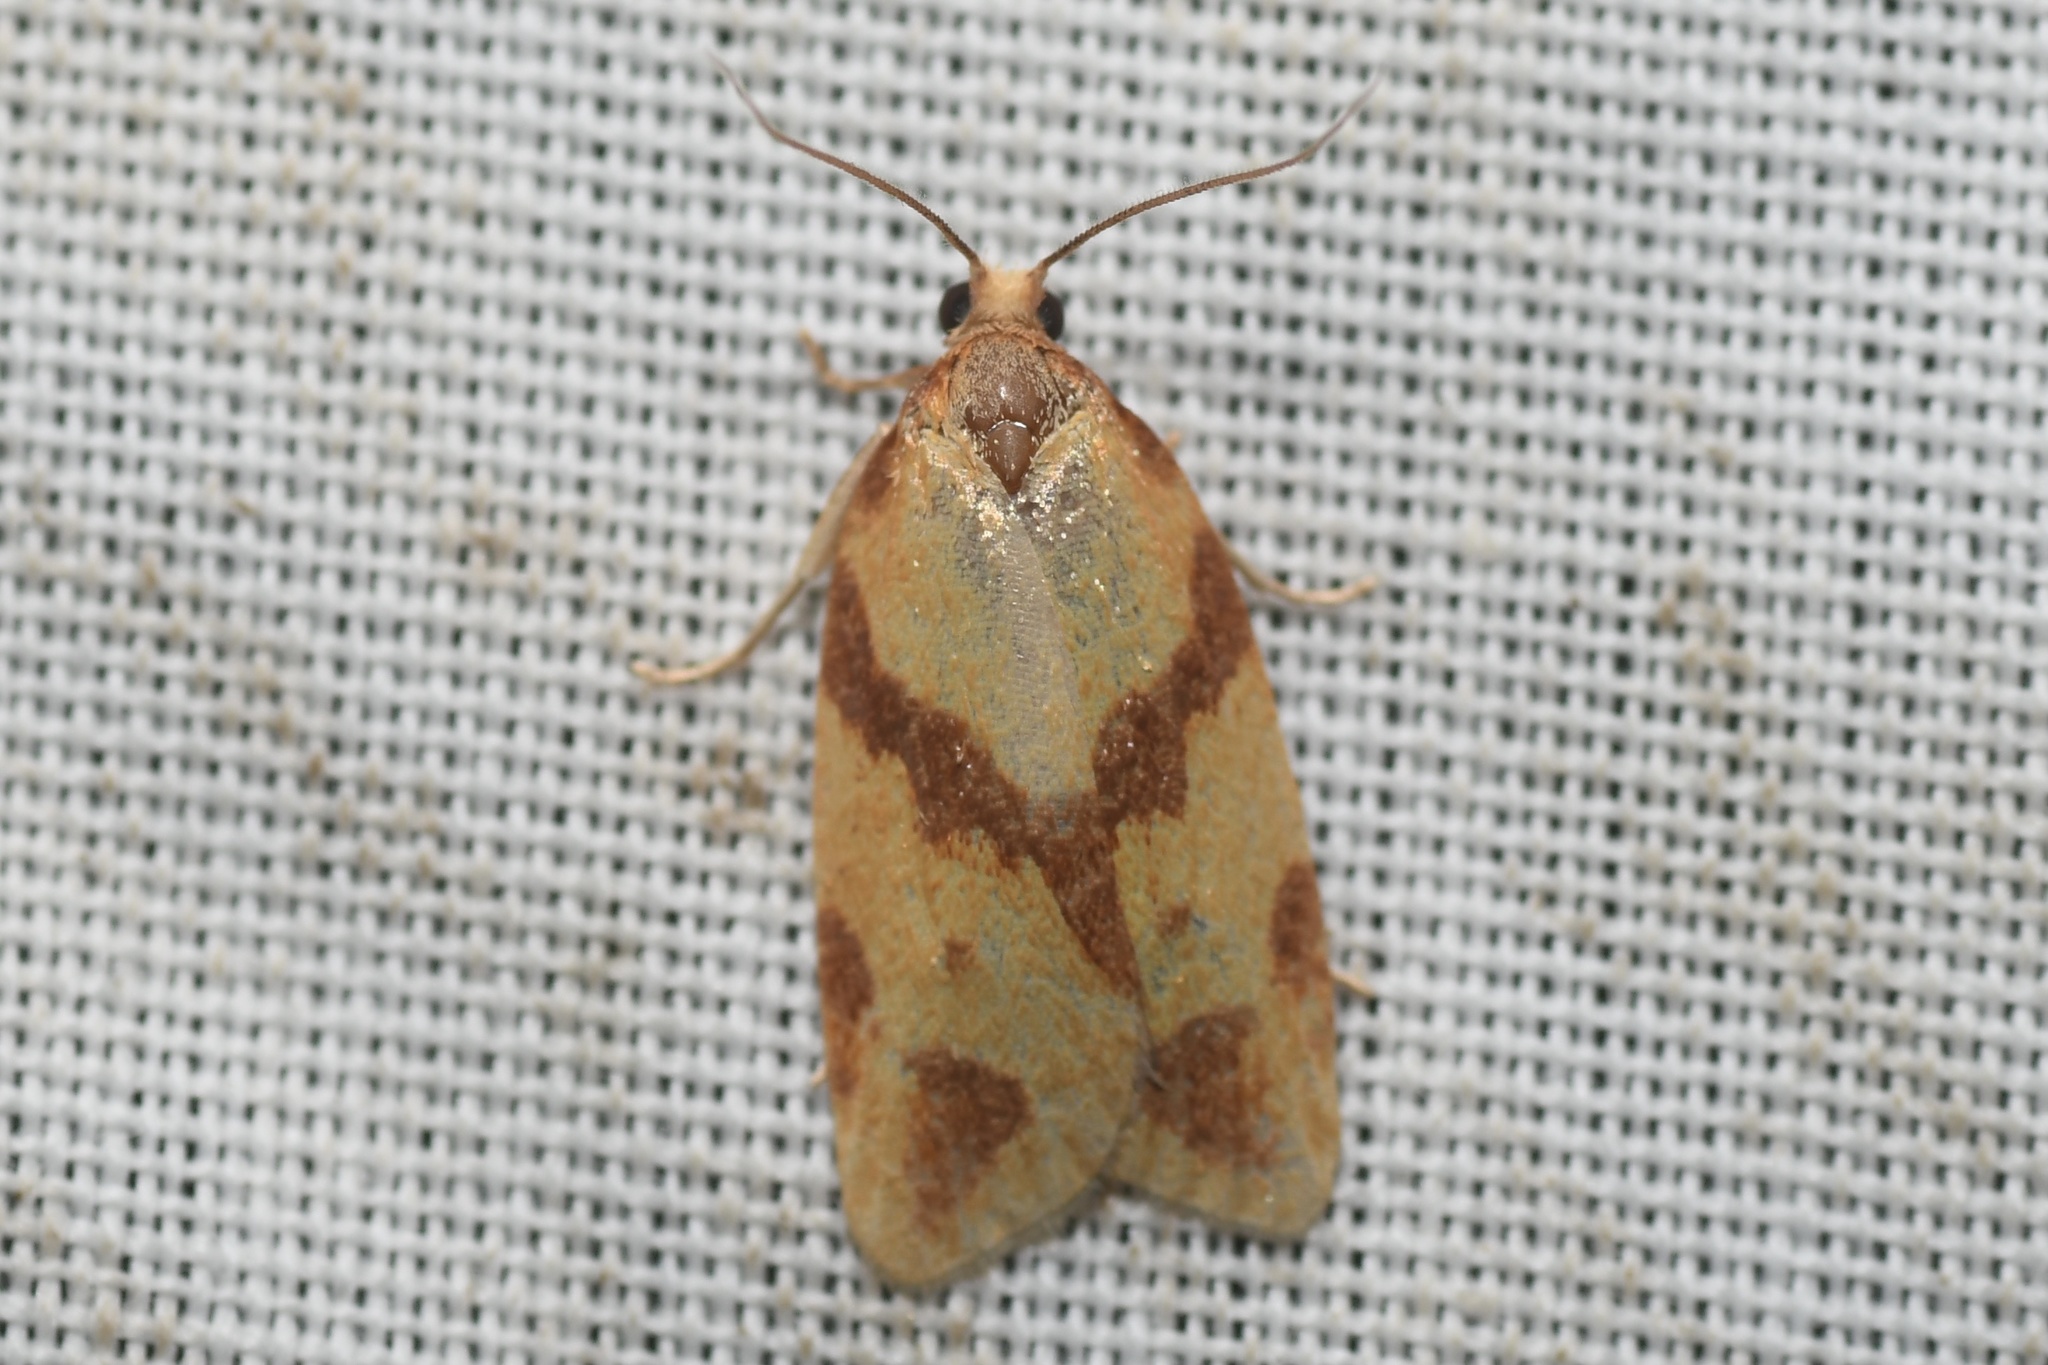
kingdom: Animalia
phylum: Arthropoda
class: Insecta
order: Lepidoptera
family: Tortricidae
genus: Sparganothis
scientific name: Sparganothis unifasciana
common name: One-lined sparganothis moth
